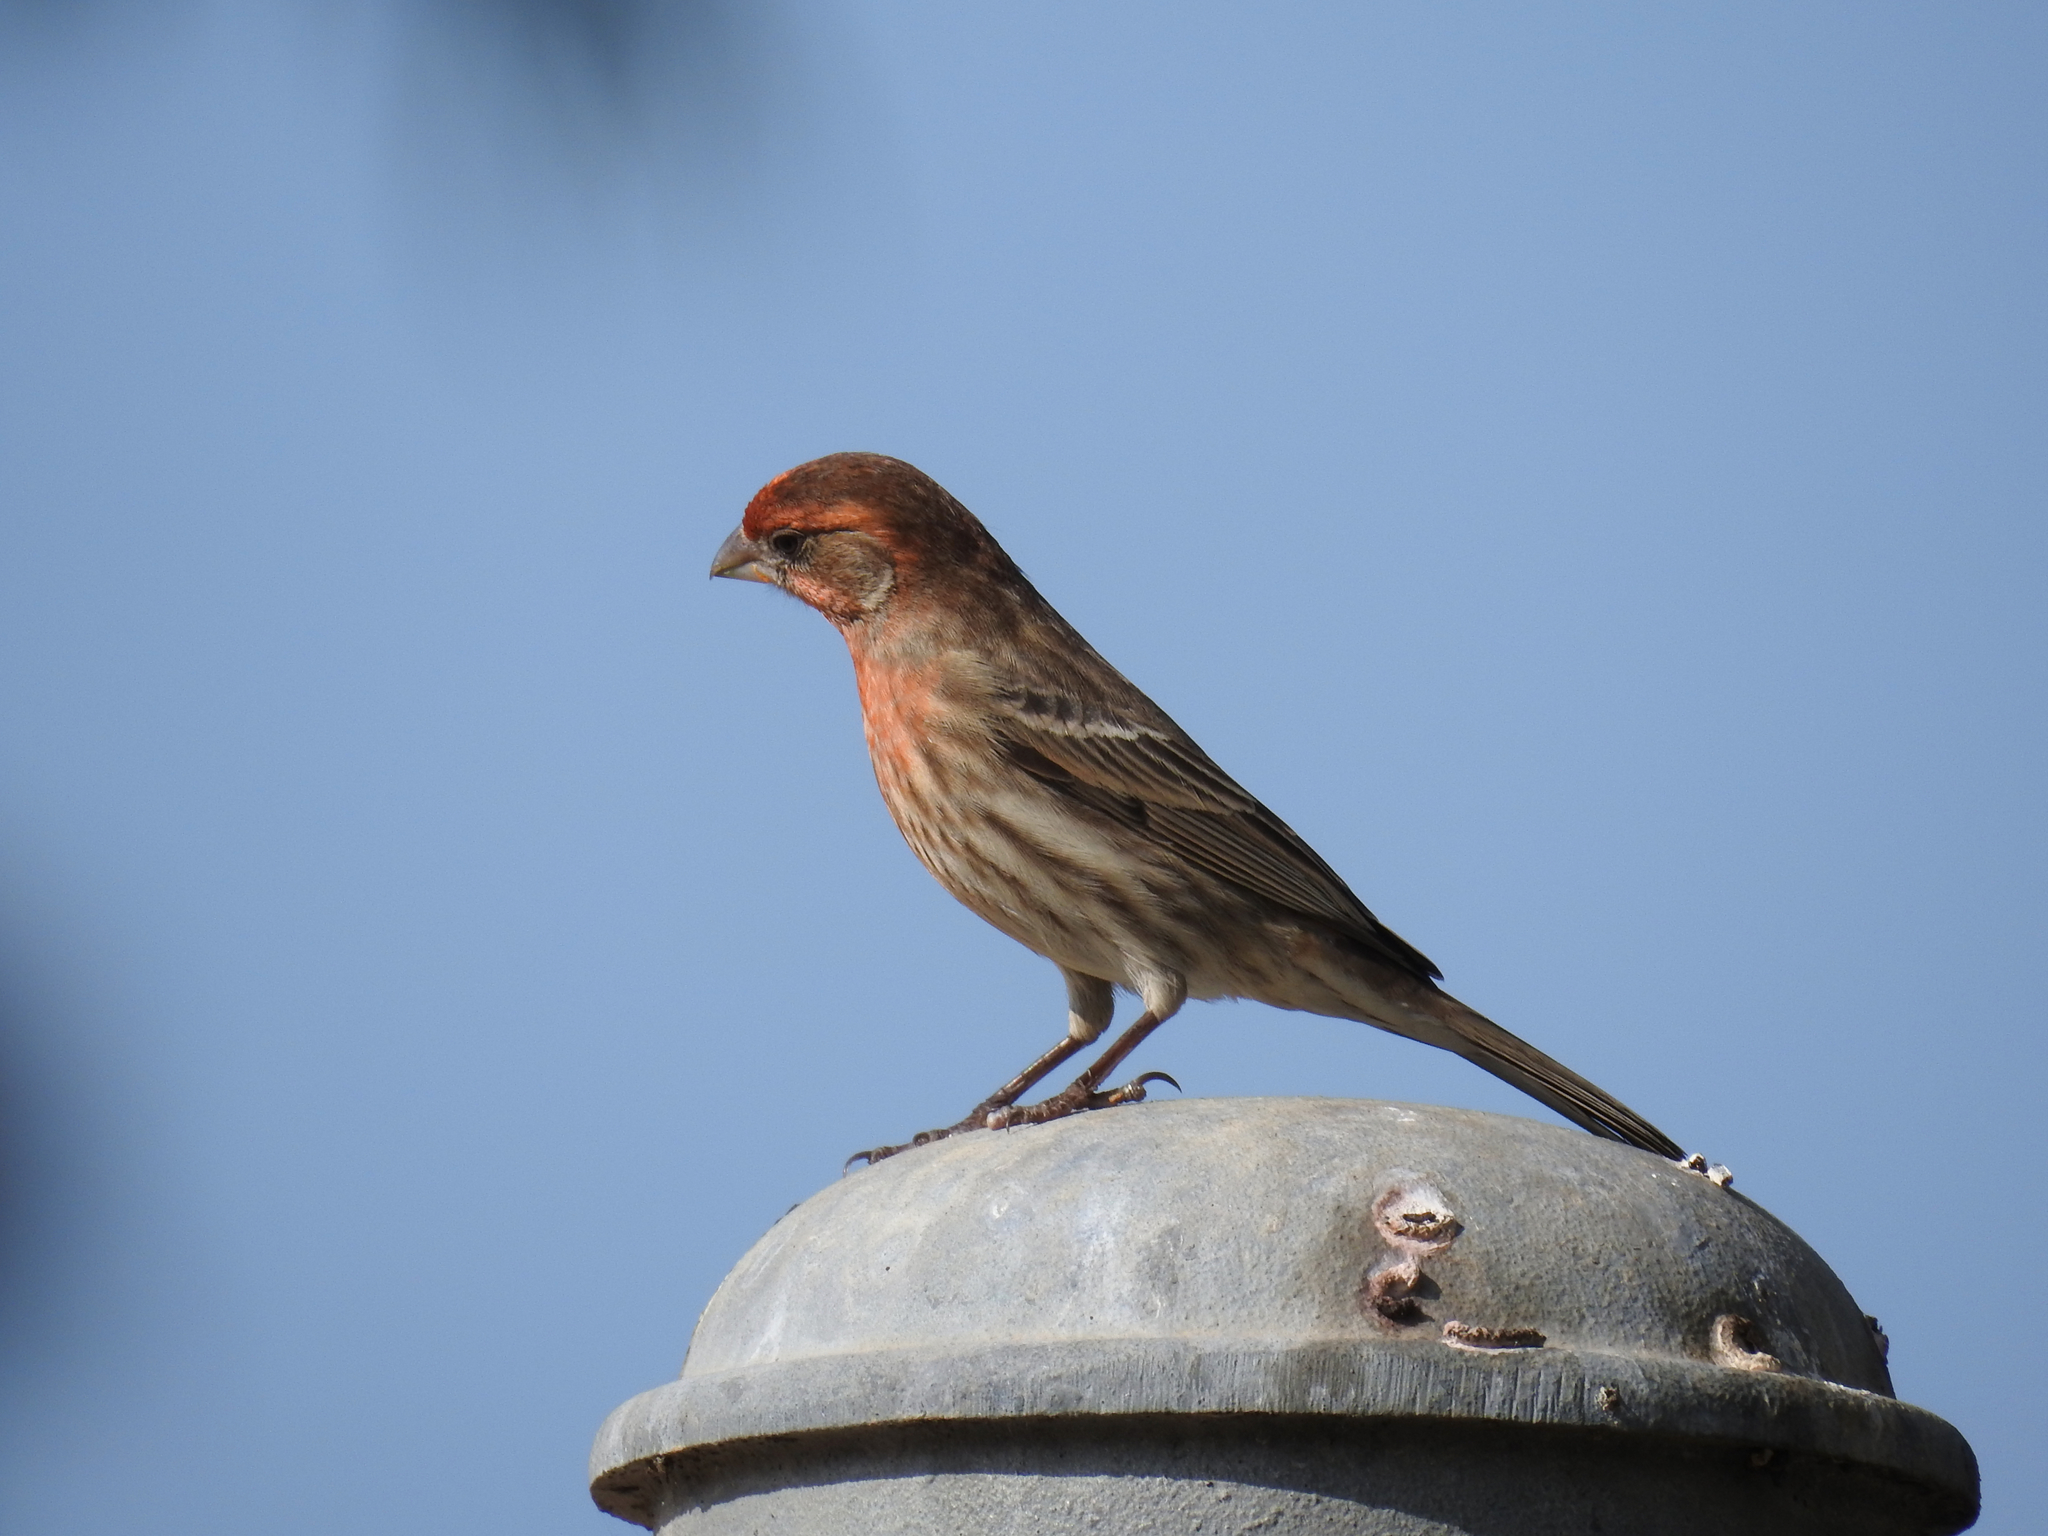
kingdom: Animalia
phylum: Chordata
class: Aves
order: Passeriformes
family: Fringillidae
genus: Haemorhous
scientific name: Haemorhous mexicanus
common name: House finch
